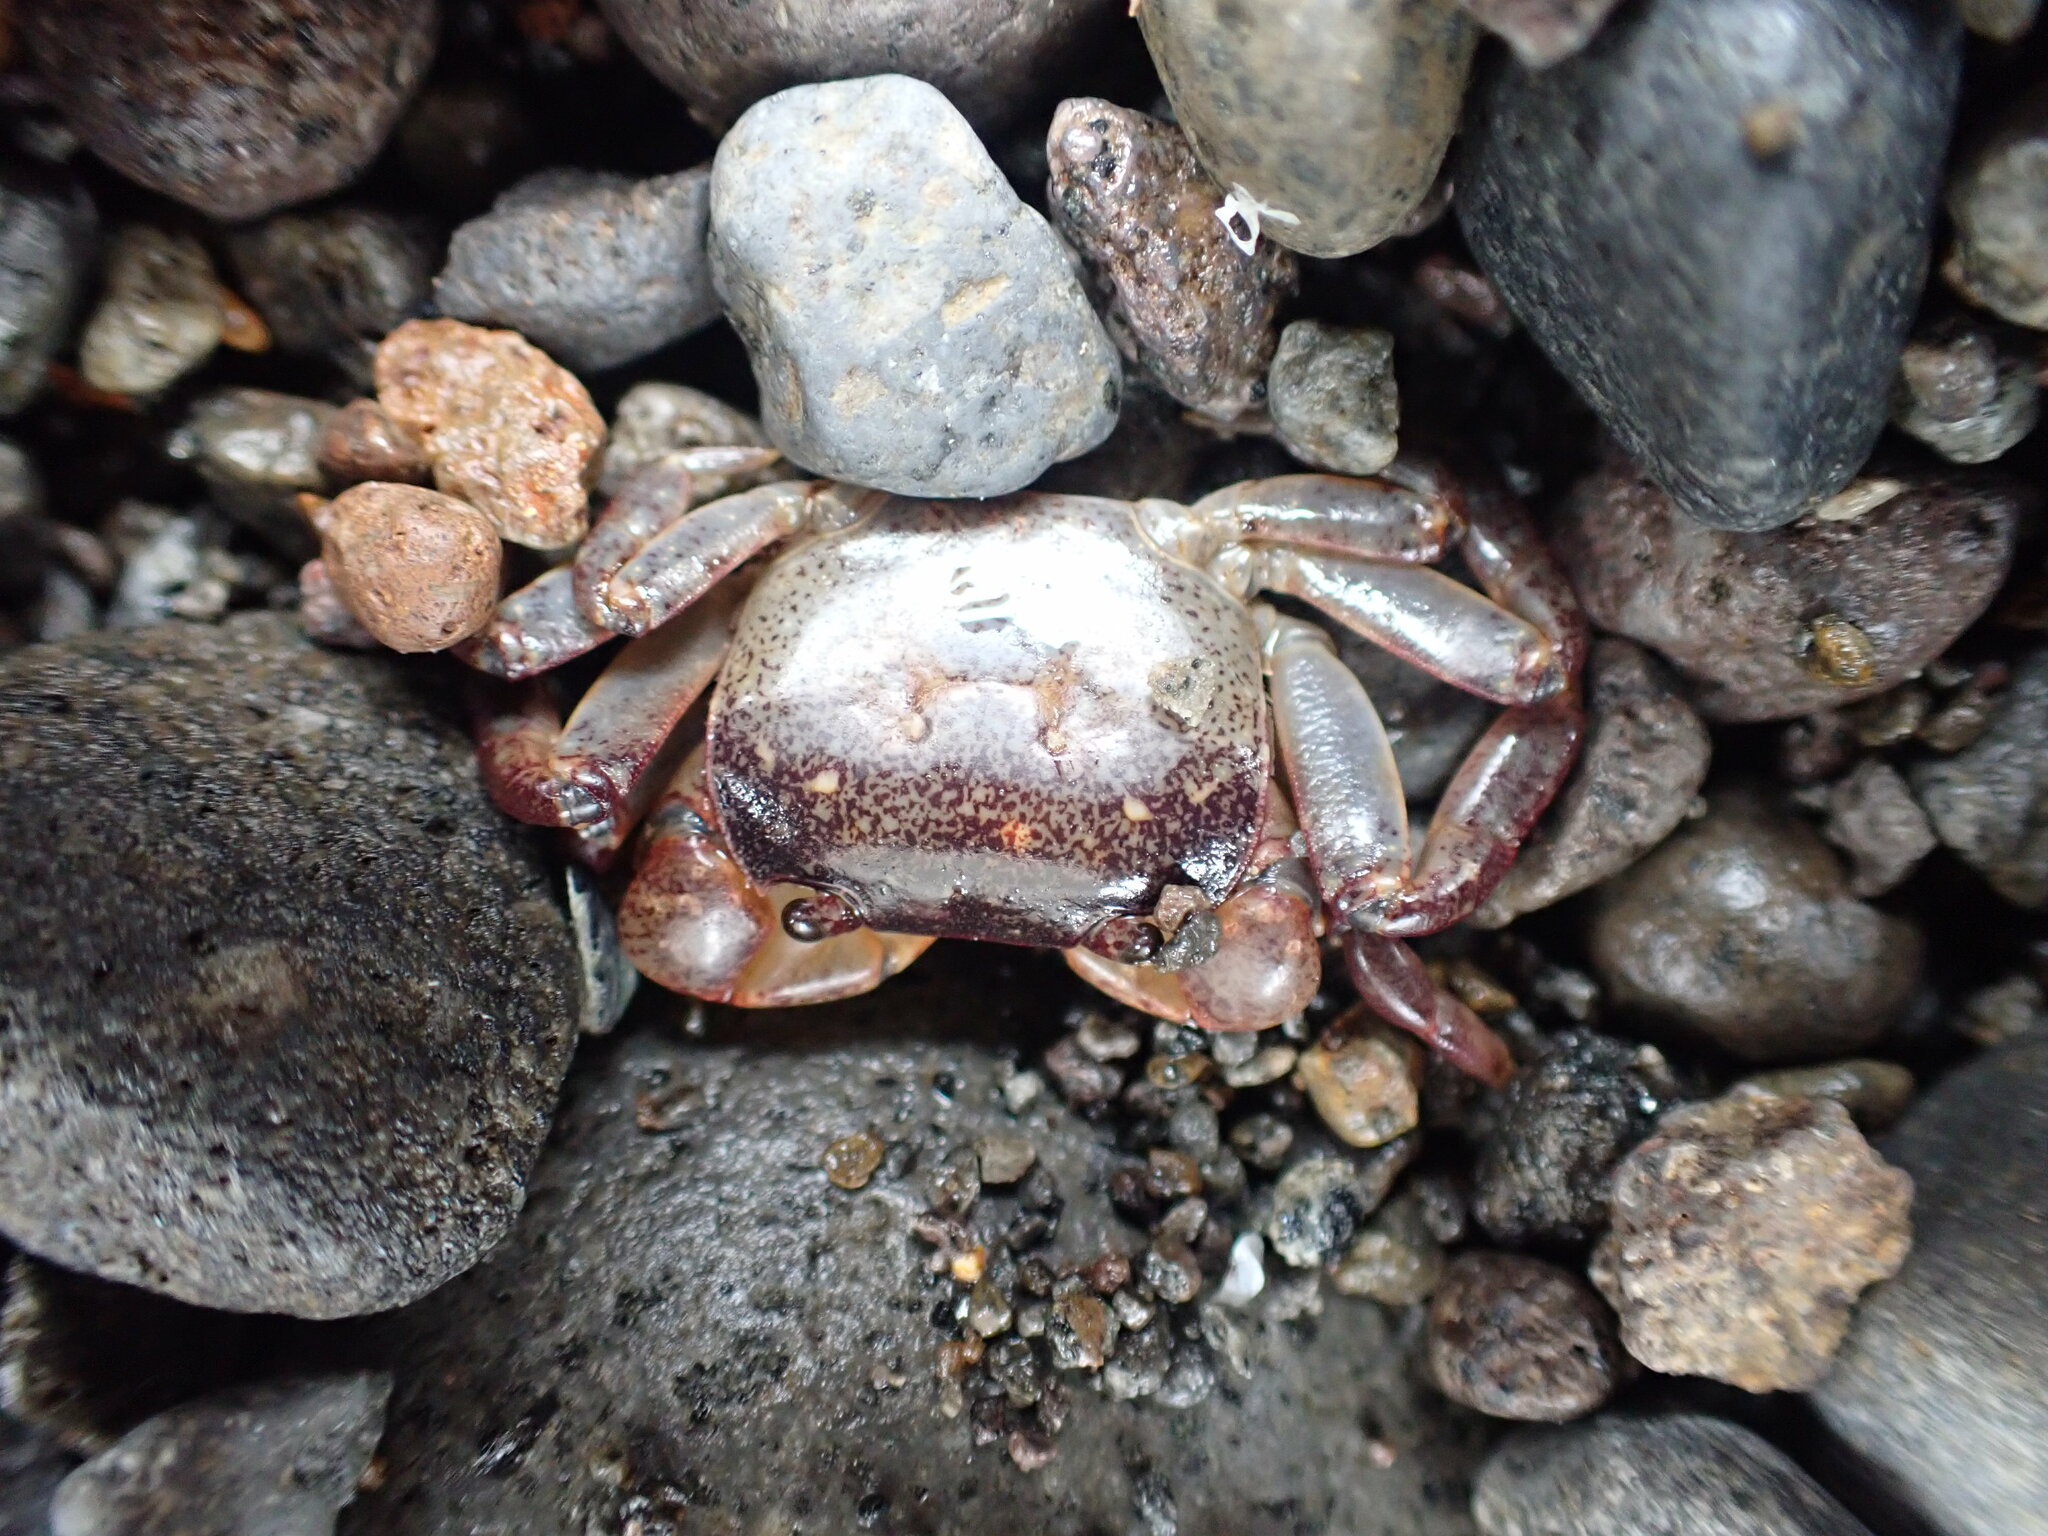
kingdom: Animalia
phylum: Arthropoda
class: Malacostraca
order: Decapoda
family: Varunidae
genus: Cyclograpsus
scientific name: Cyclograpsus lavauxi
